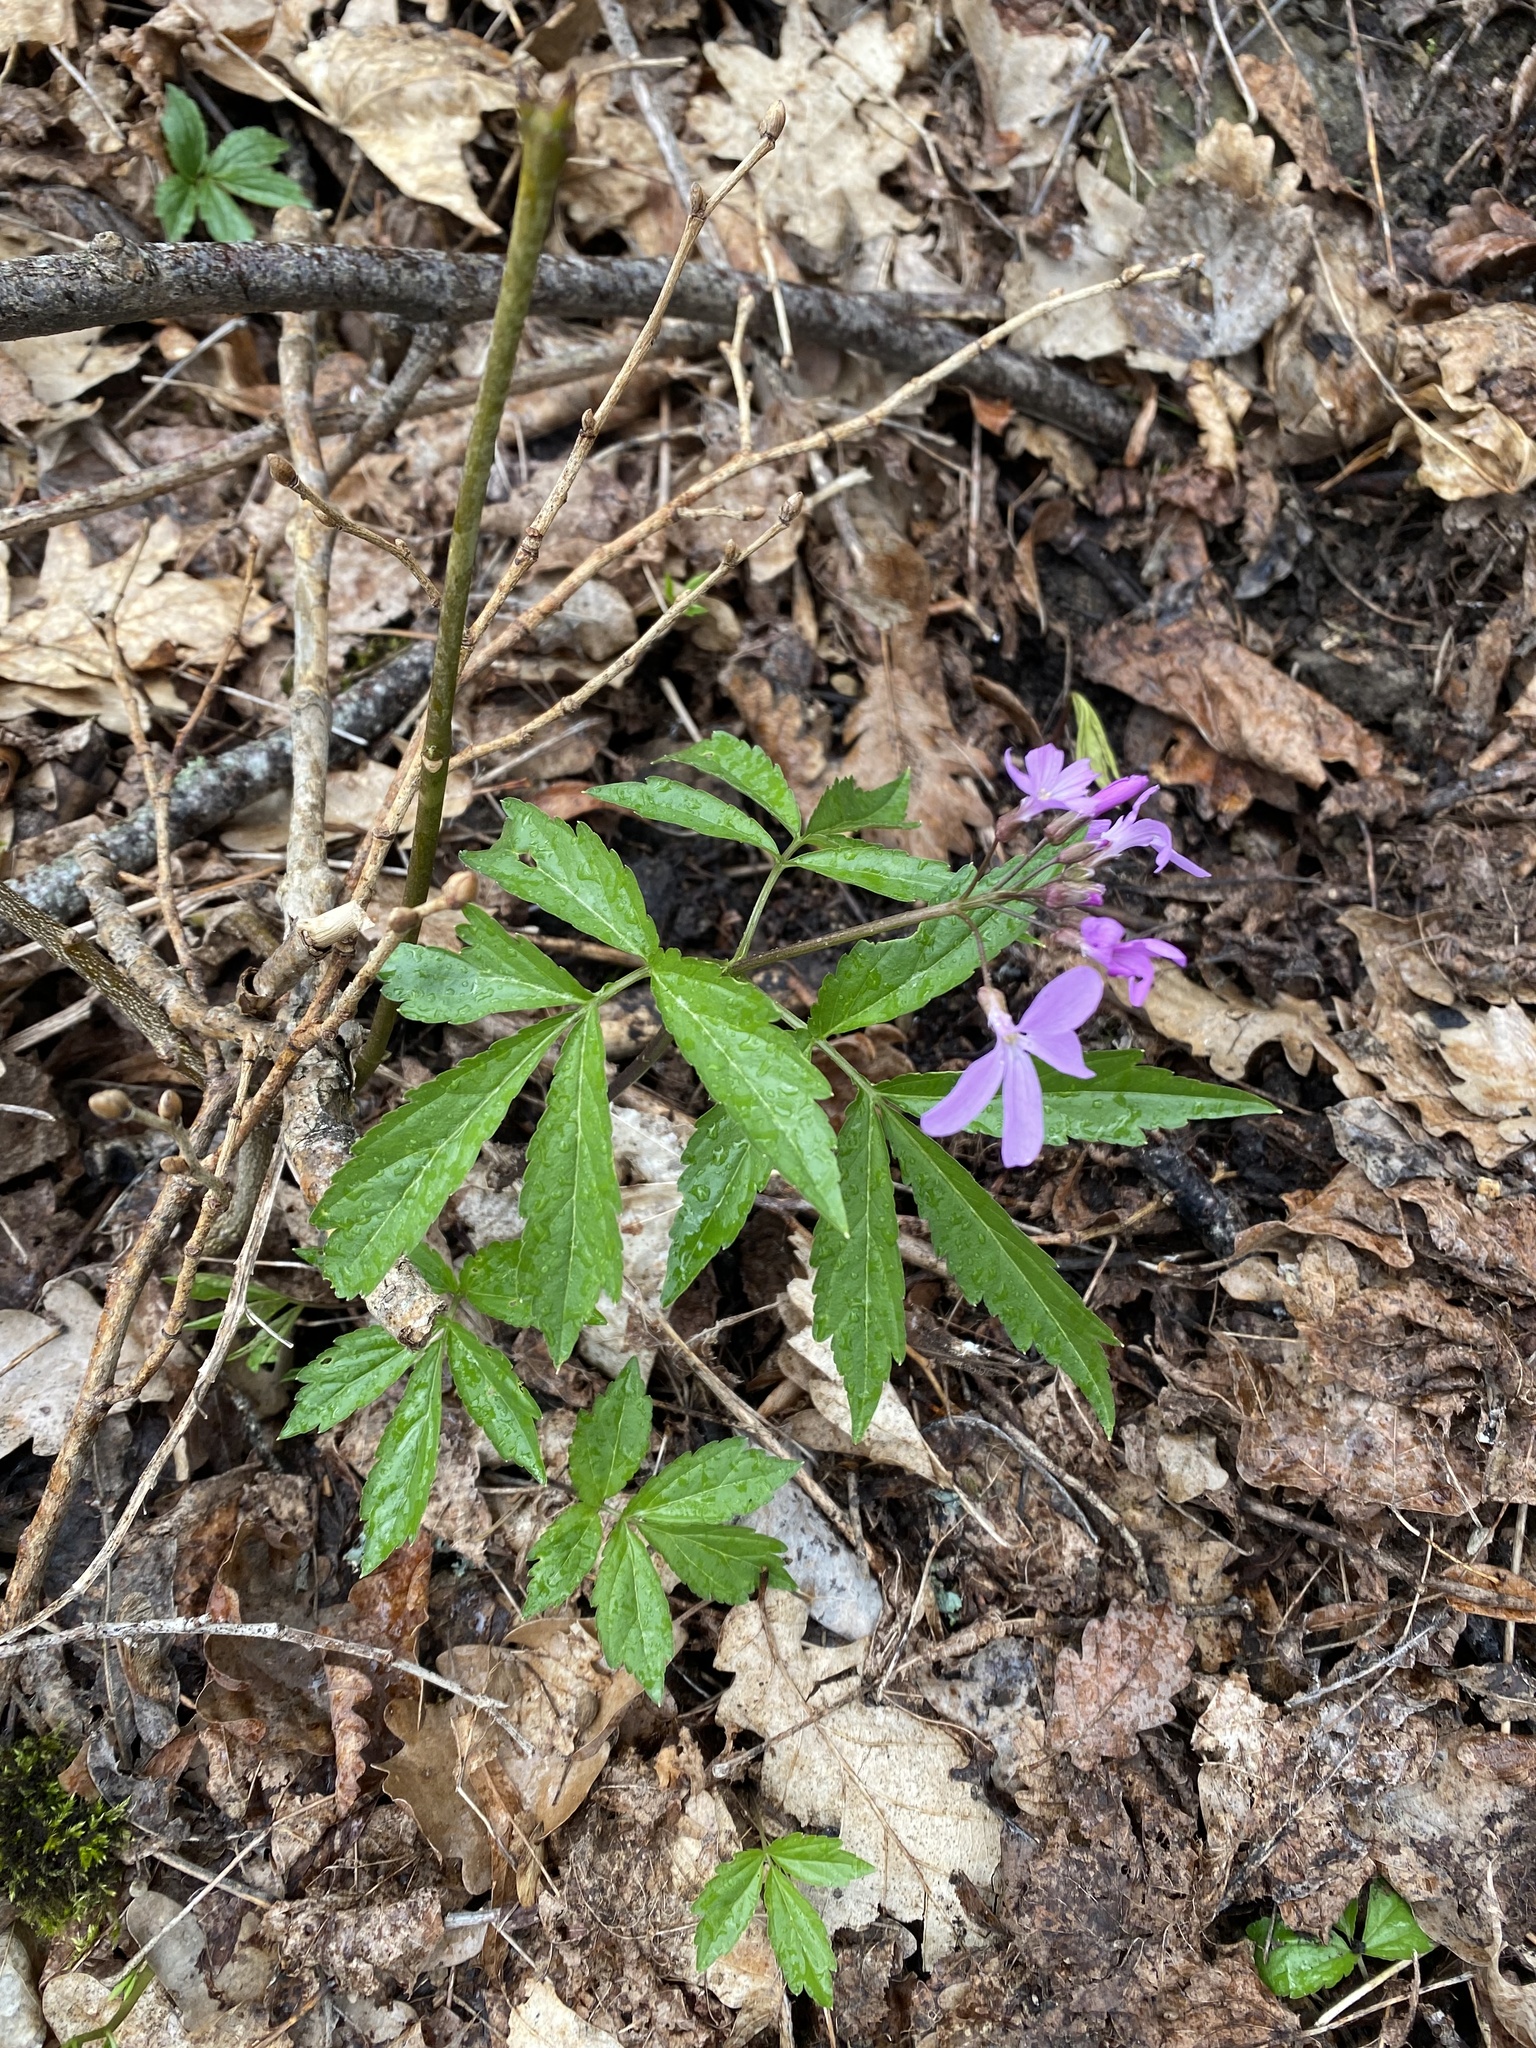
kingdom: Plantae
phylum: Tracheophyta
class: Magnoliopsida
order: Brassicales
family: Brassicaceae
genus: Cardamine
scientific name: Cardamine quinquefolia
